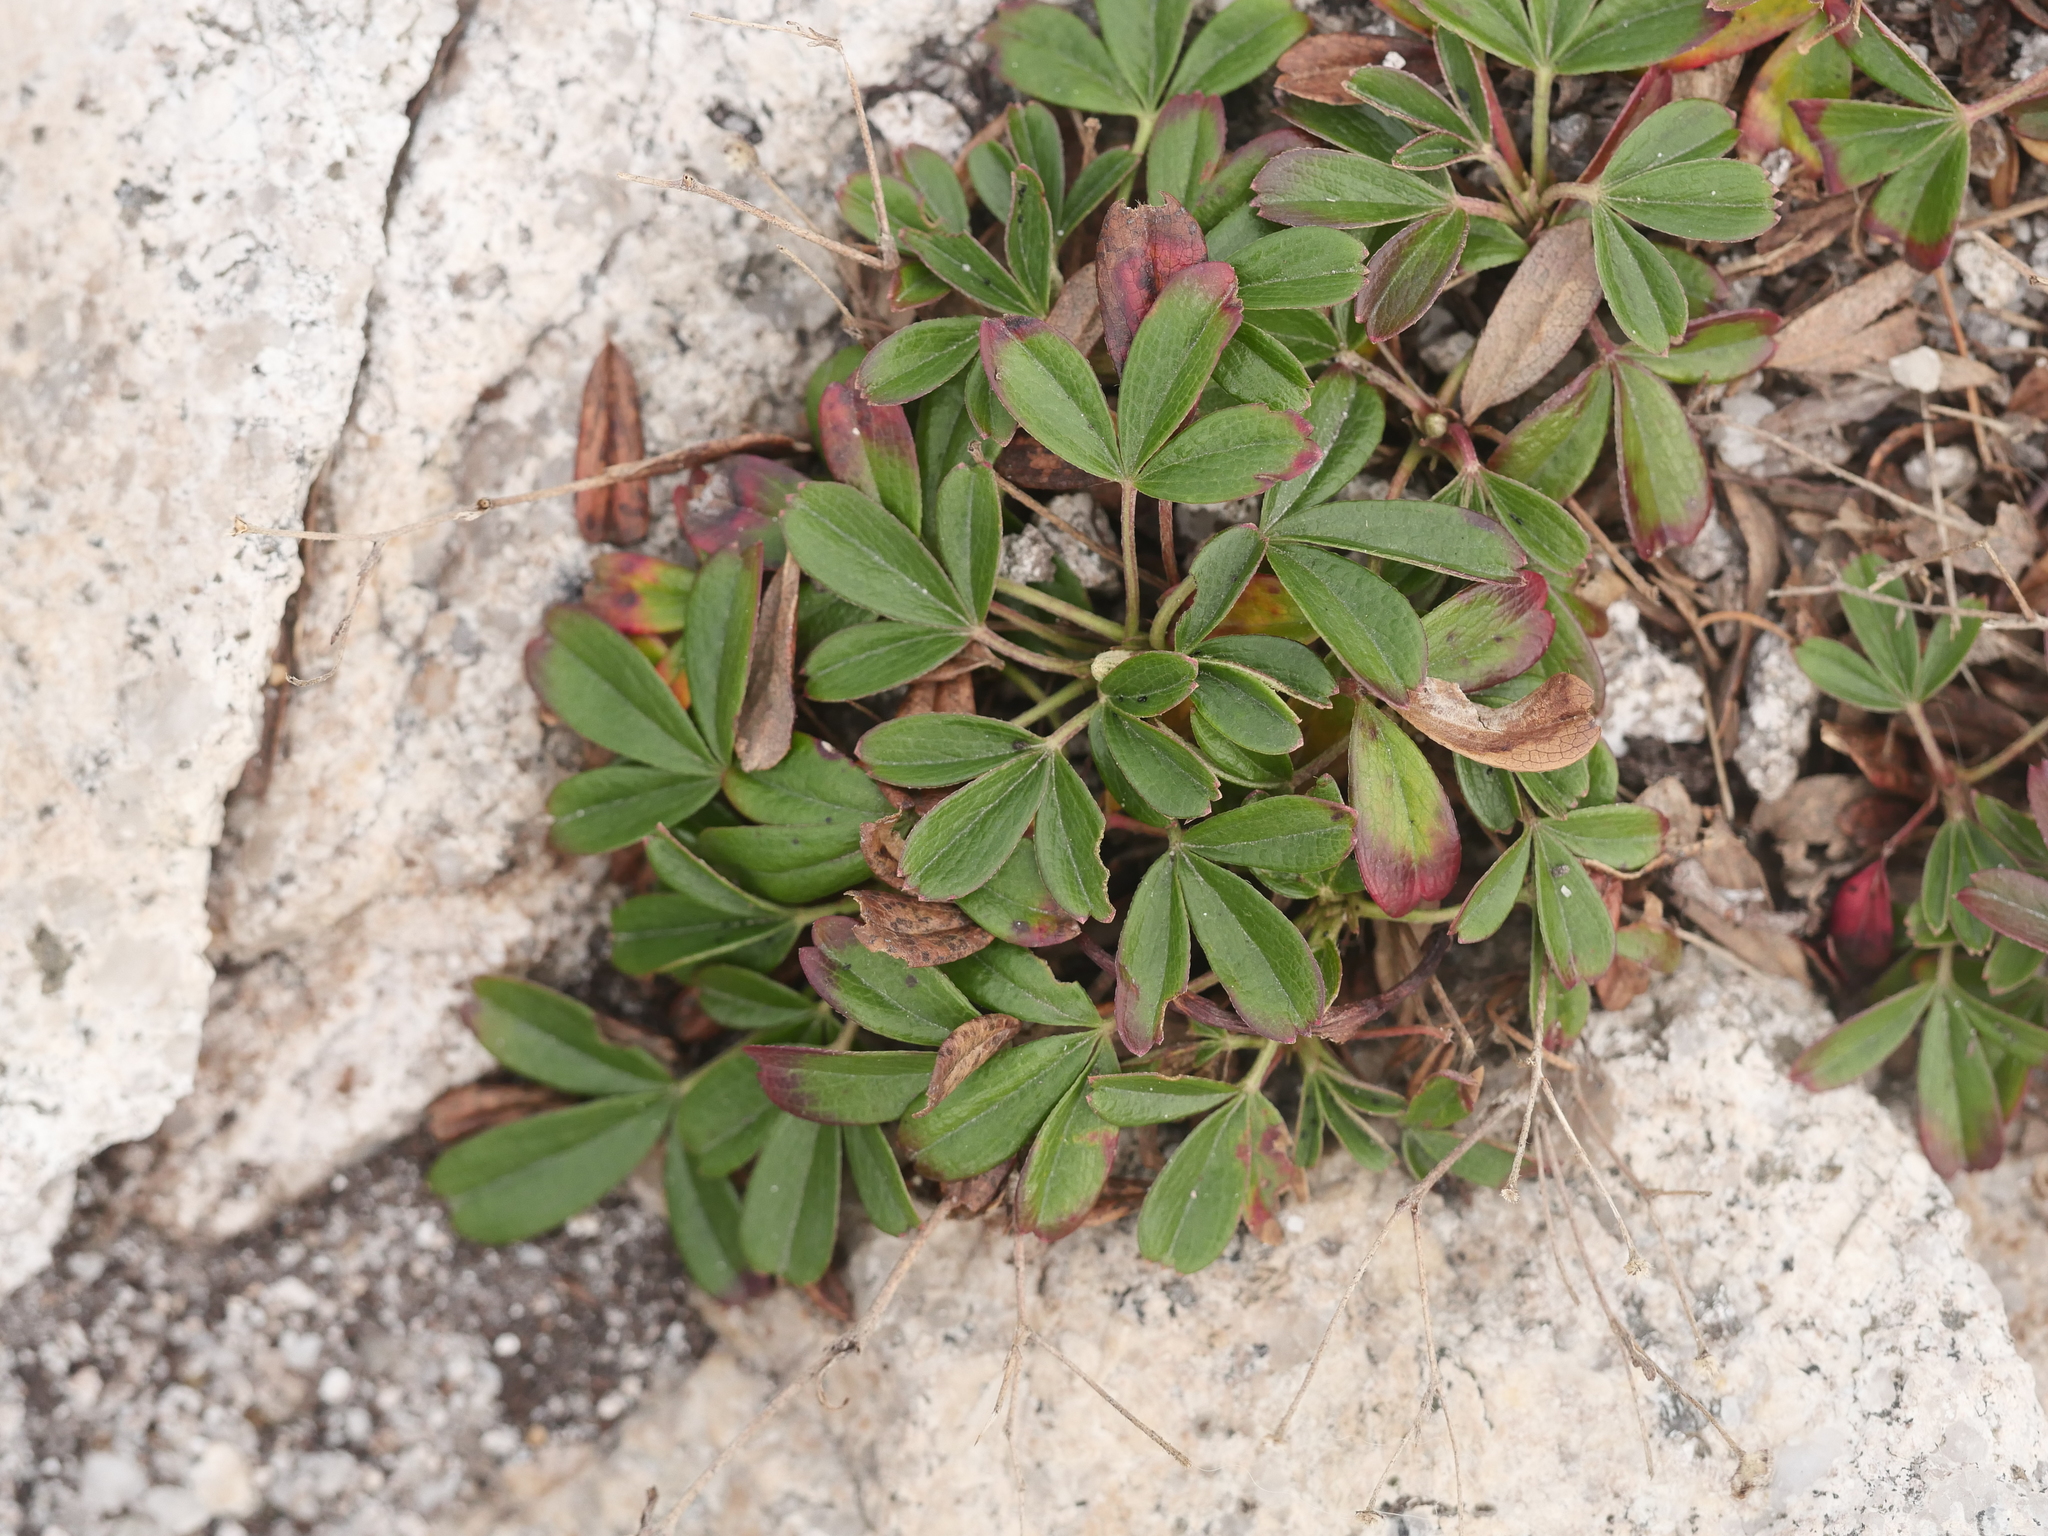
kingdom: Plantae
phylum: Tracheophyta
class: Magnoliopsida
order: Rosales
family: Rosaceae
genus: Sibbaldia
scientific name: Sibbaldia tridentata
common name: Three-toothed cinquefoil
